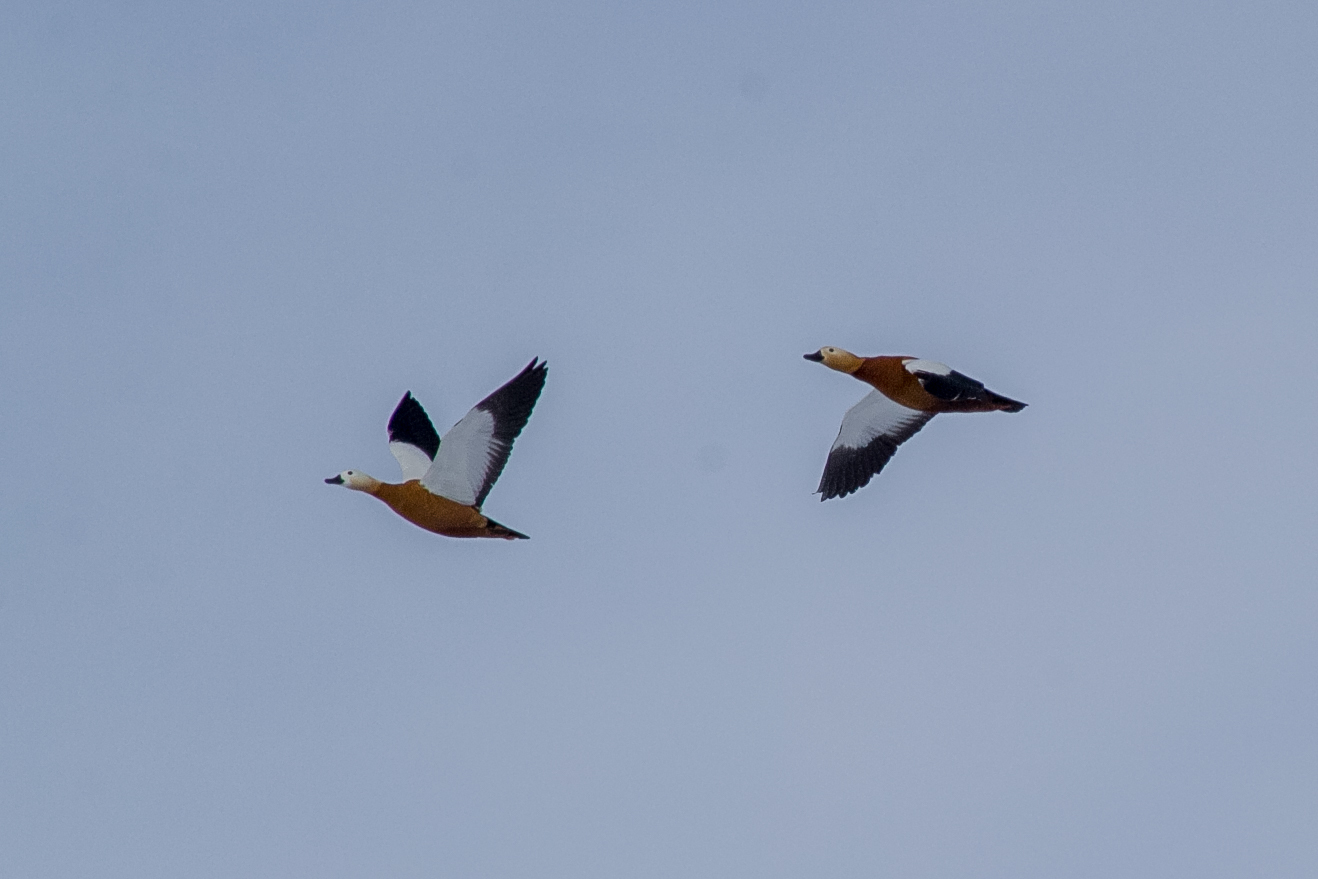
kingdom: Animalia
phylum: Chordata
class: Aves
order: Anseriformes
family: Anatidae
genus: Tadorna
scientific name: Tadorna ferruginea
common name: Ruddy shelduck
